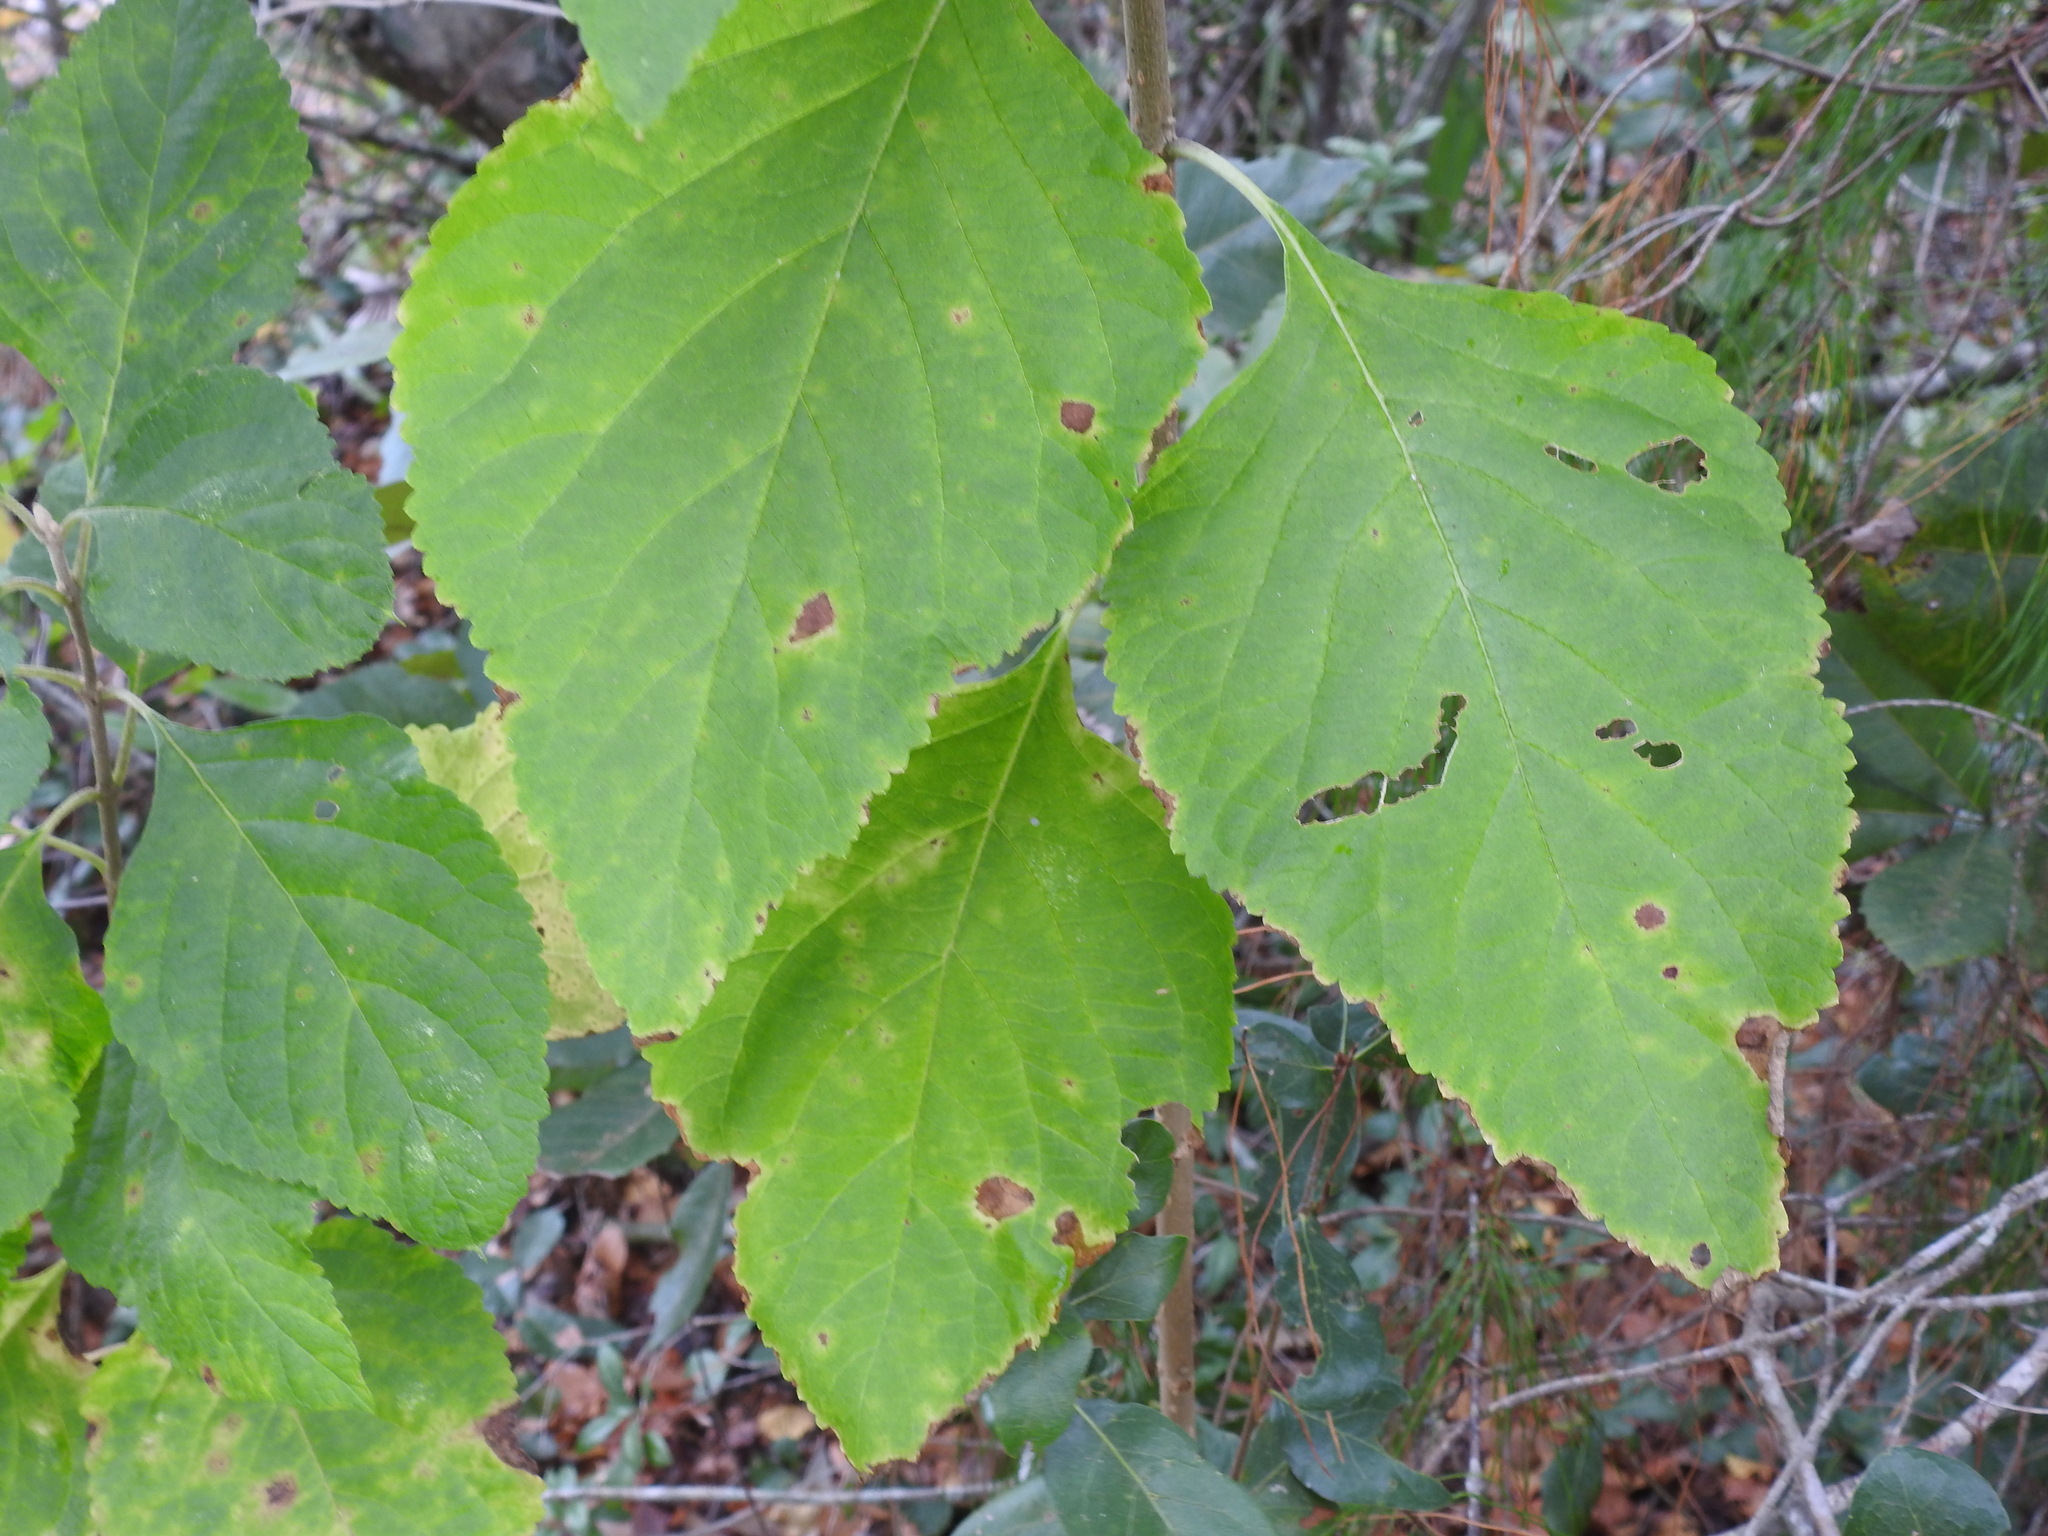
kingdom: Plantae
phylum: Tracheophyta
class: Magnoliopsida
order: Lamiales
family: Lamiaceae
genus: Callicarpa
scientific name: Callicarpa americana
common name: American beautyberry
